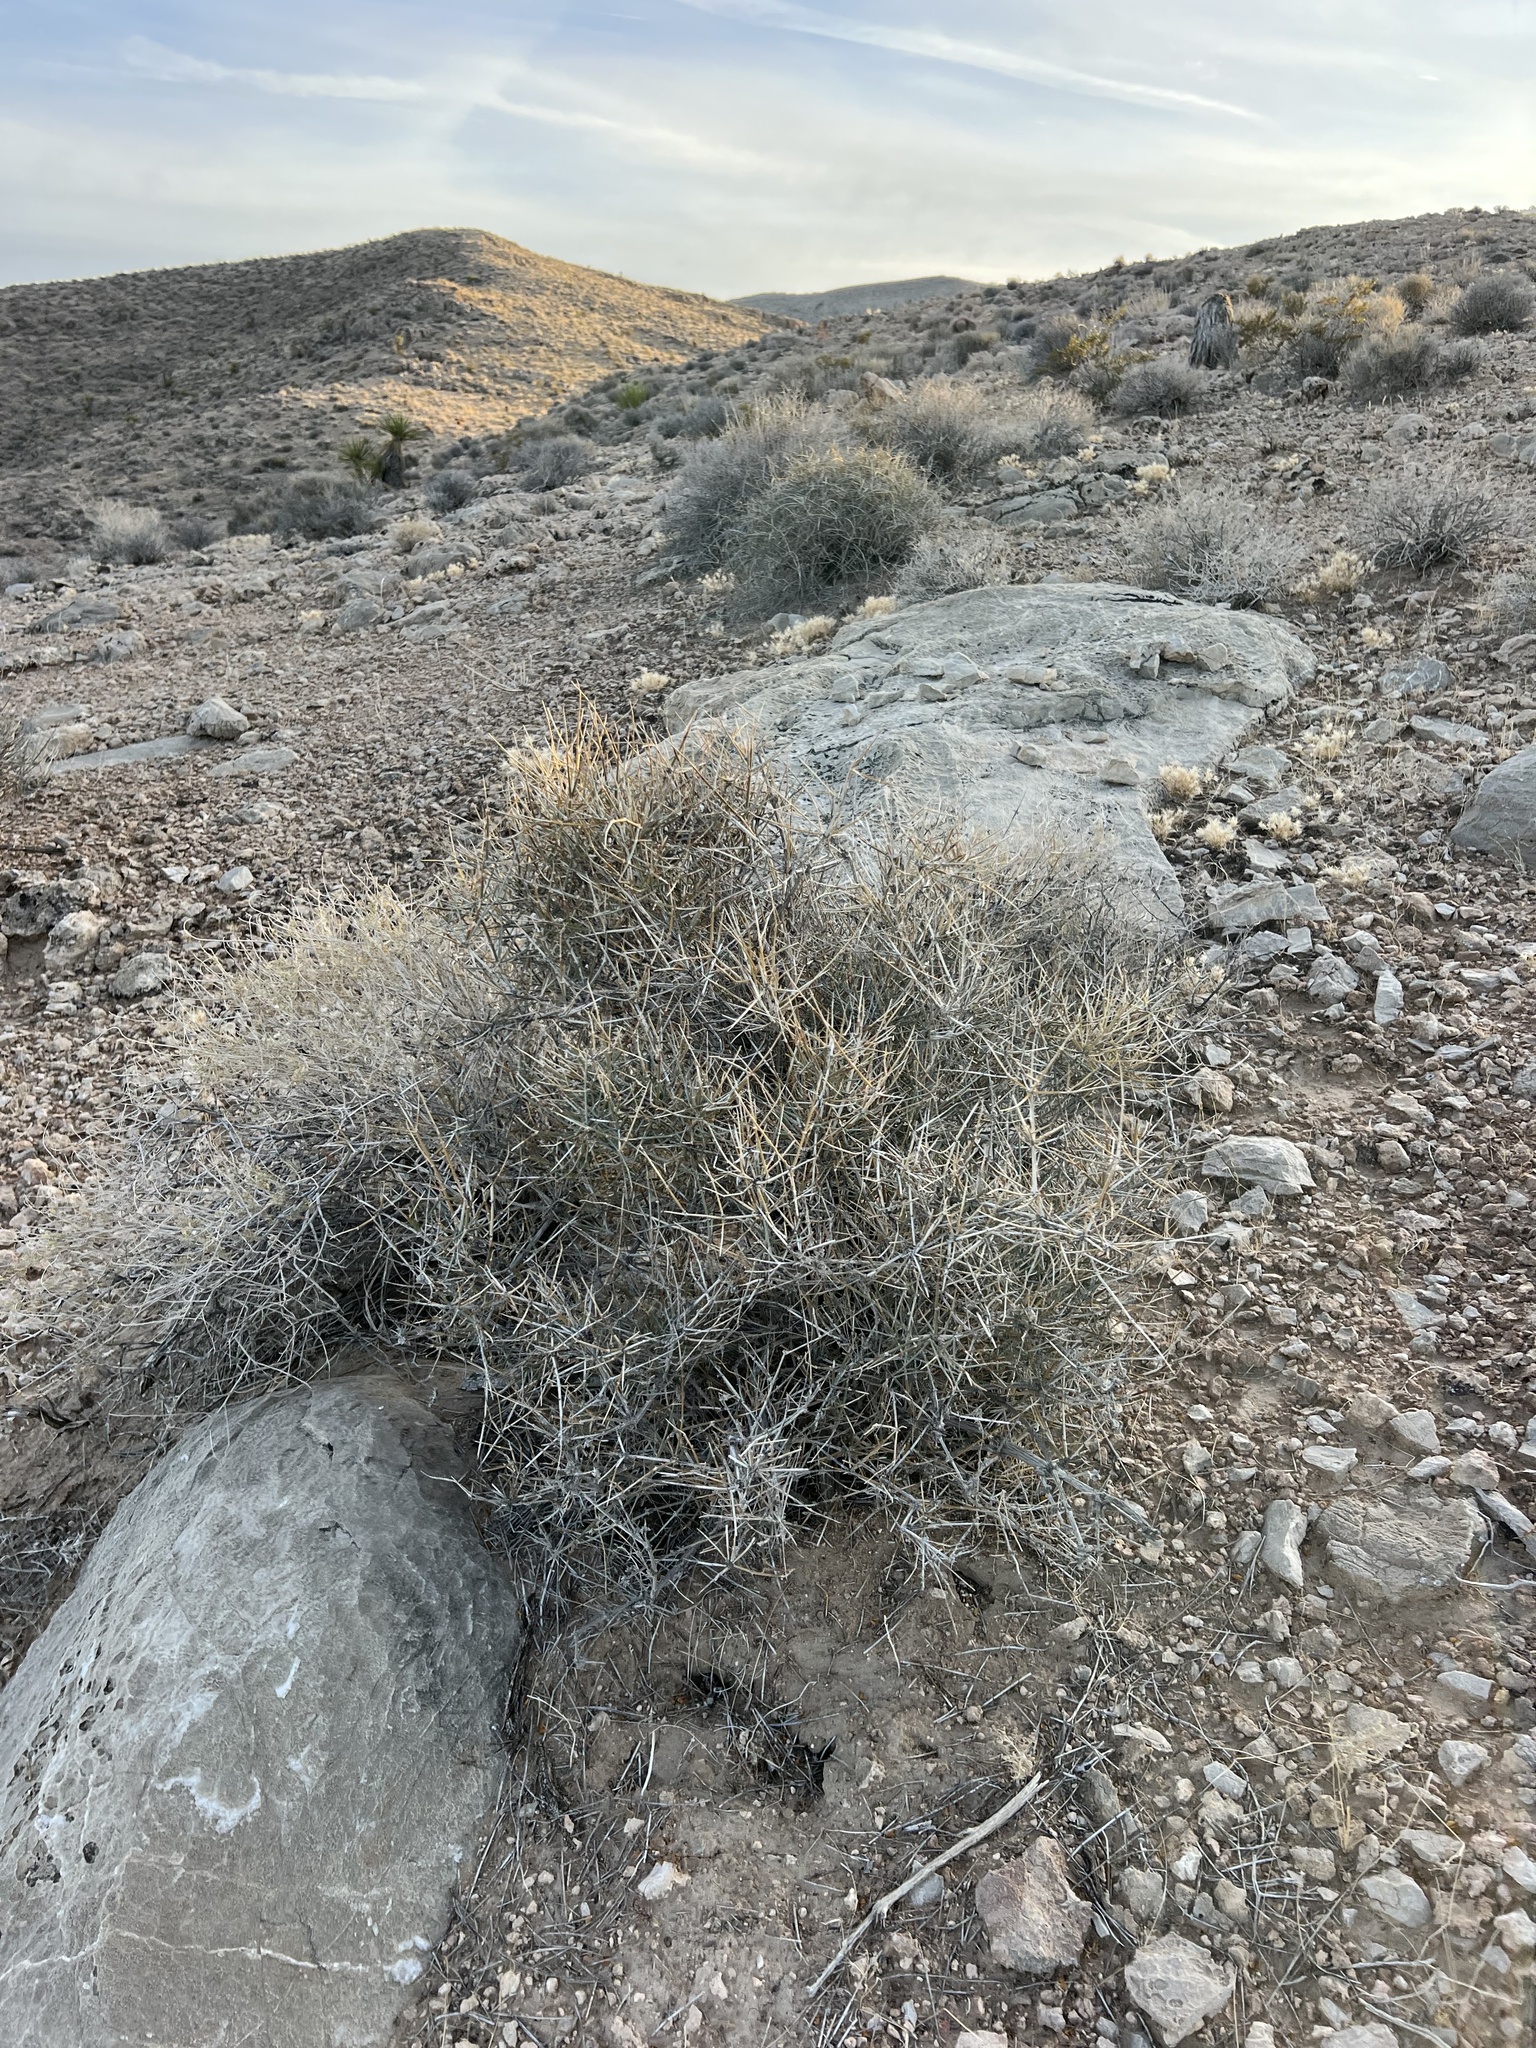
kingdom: Plantae
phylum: Tracheophyta
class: Gnetopsida
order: Ephedrales
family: Ephedraceae
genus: Ephedra
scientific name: Ephedra nevadensis
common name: Gray ephedra
